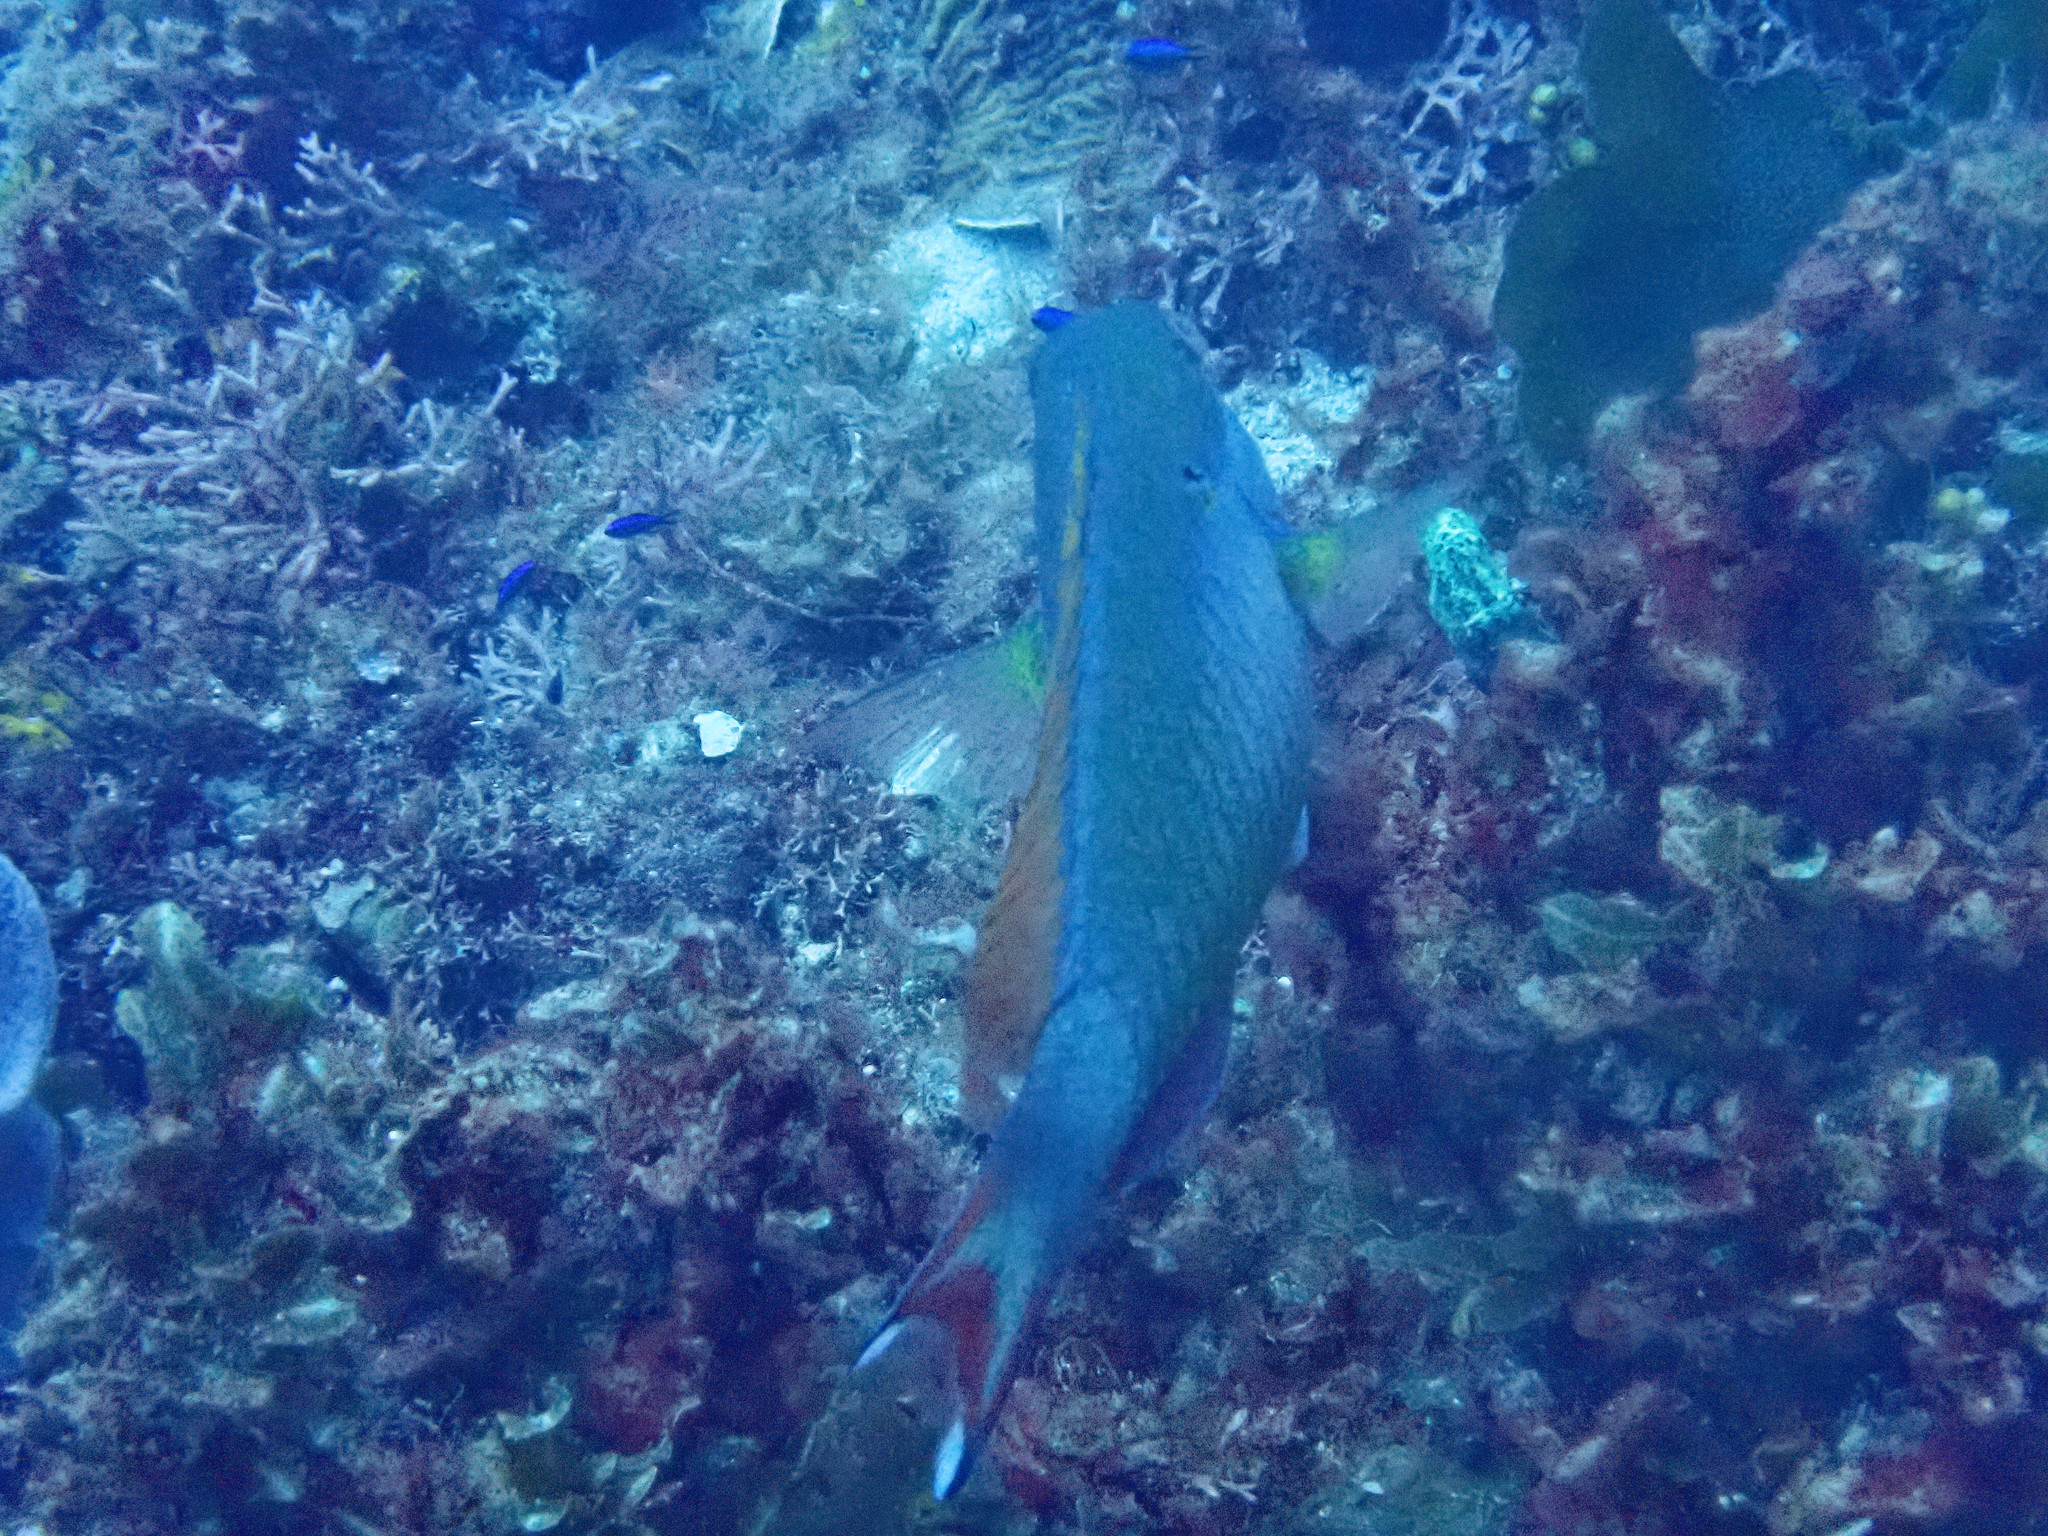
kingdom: Animalia
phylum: Chordata
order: Perciformes
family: Scaridae
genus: Sparisoma
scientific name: Sparisoma aurofrenatum
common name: Redband parrotfish
